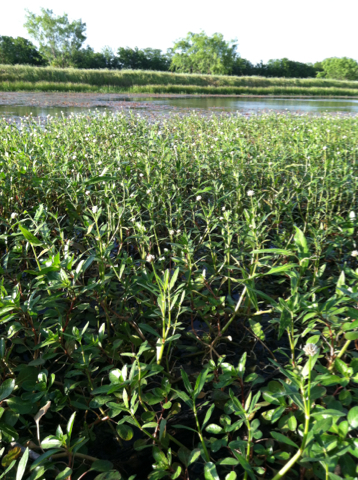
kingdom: Plantae
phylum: Tracheophyta
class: Magnoliopsida
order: Caryophyllales
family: Amaranthaceae
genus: Alternanthera
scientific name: Alternanthera philoxeroides
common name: Alligatorweed
